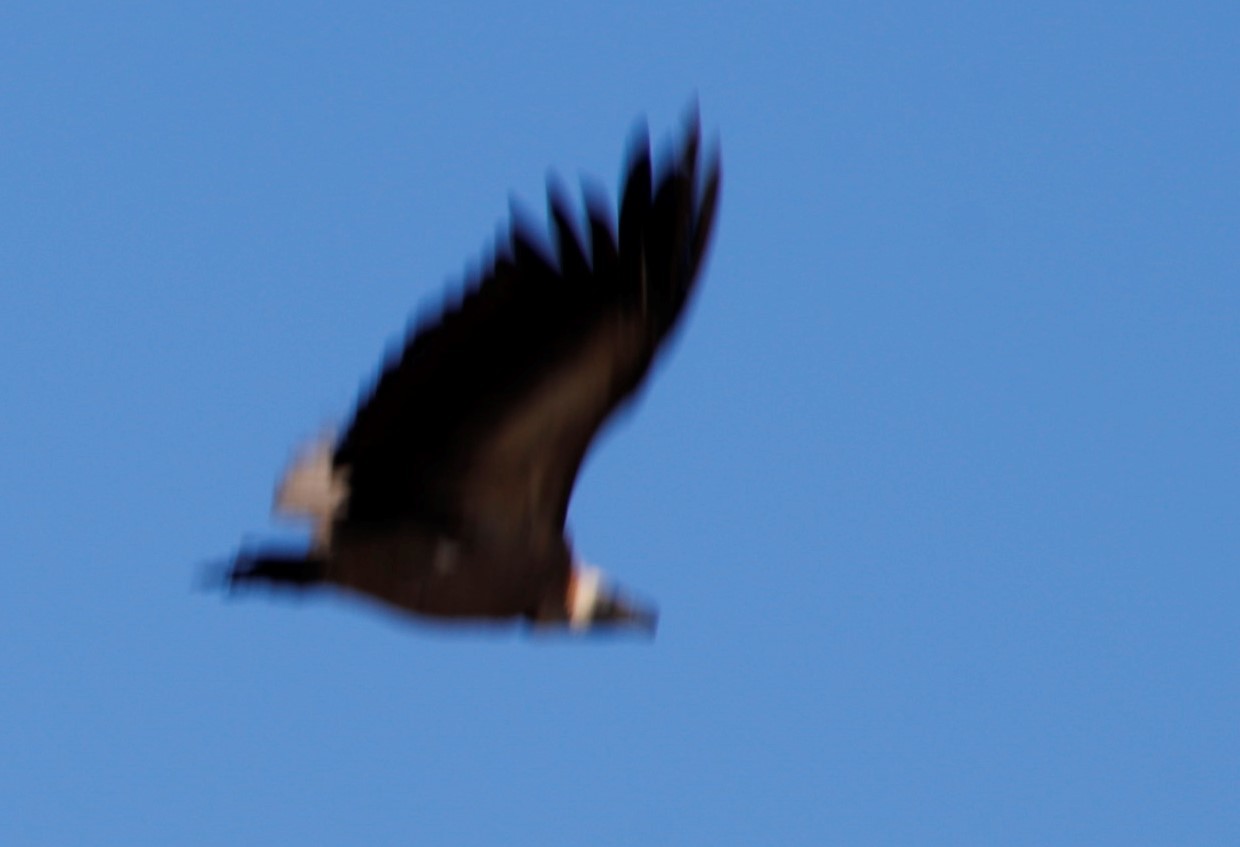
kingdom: Animalia
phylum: Chordata
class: Aves
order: Accipitriformes
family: Accipitridae
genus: Gyps
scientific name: Gyps africanus
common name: White-backed vulture
